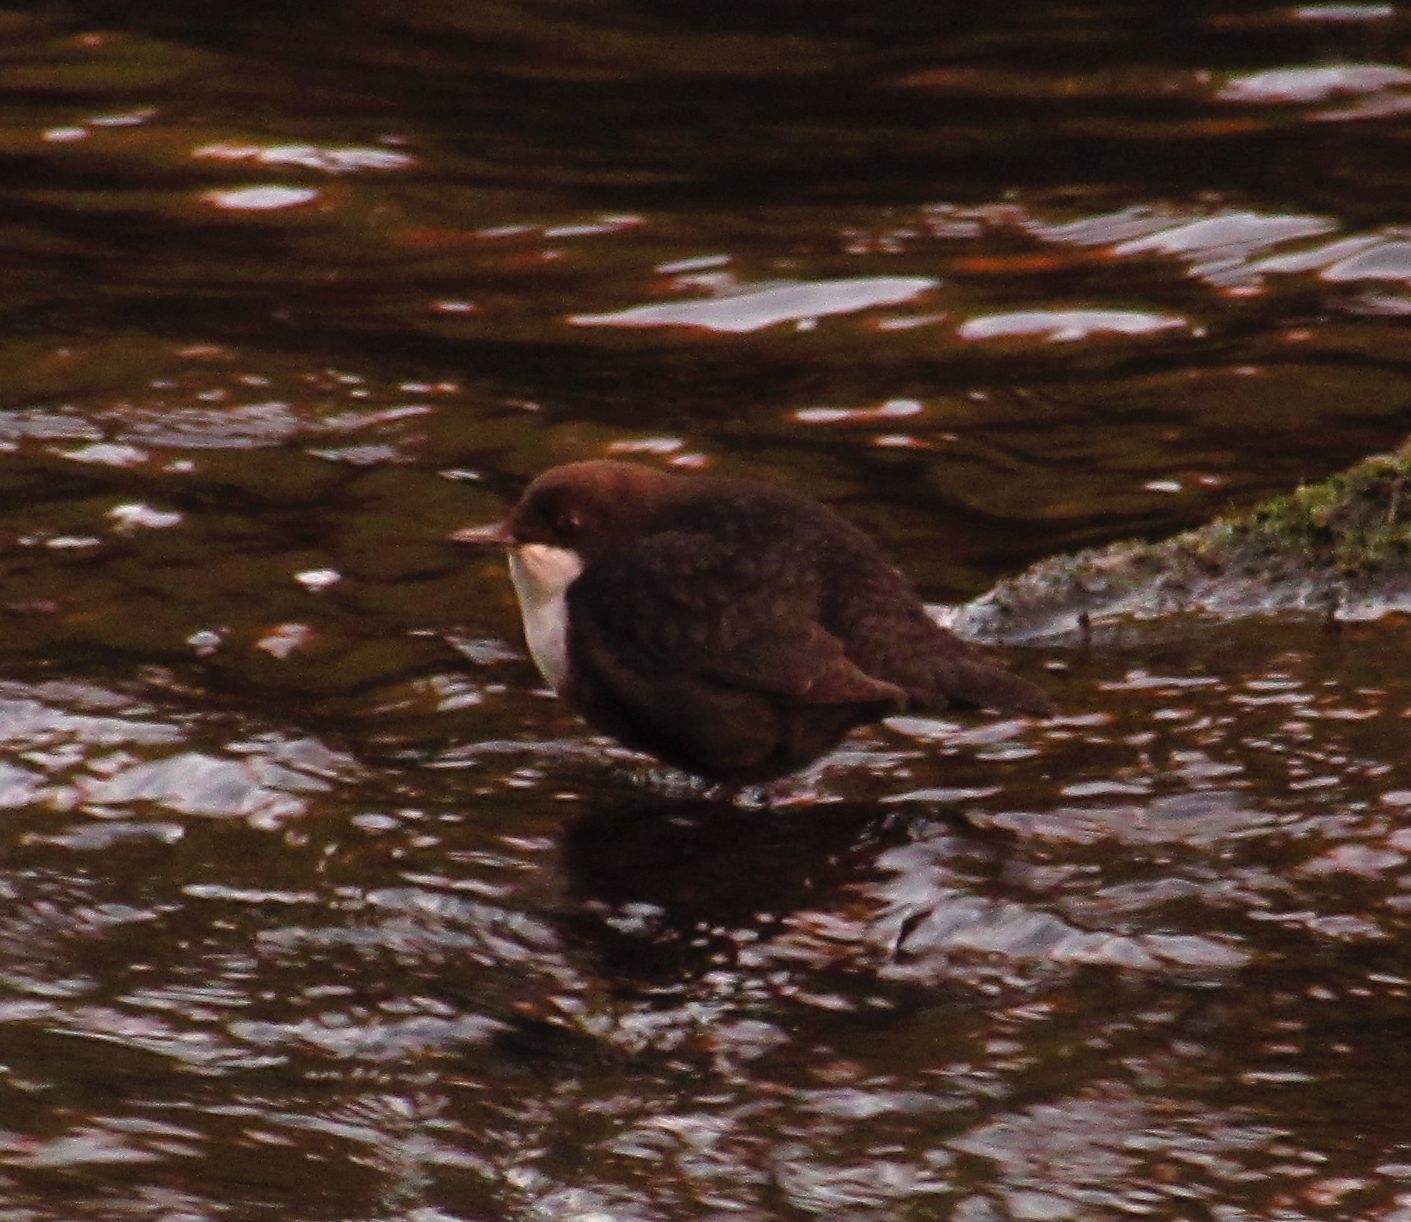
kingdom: Animalia
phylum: Chordata
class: Aves
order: Passeriformes
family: Cinclidae
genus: Cinclus
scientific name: Cinclus cinclus
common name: White-throated dipper
